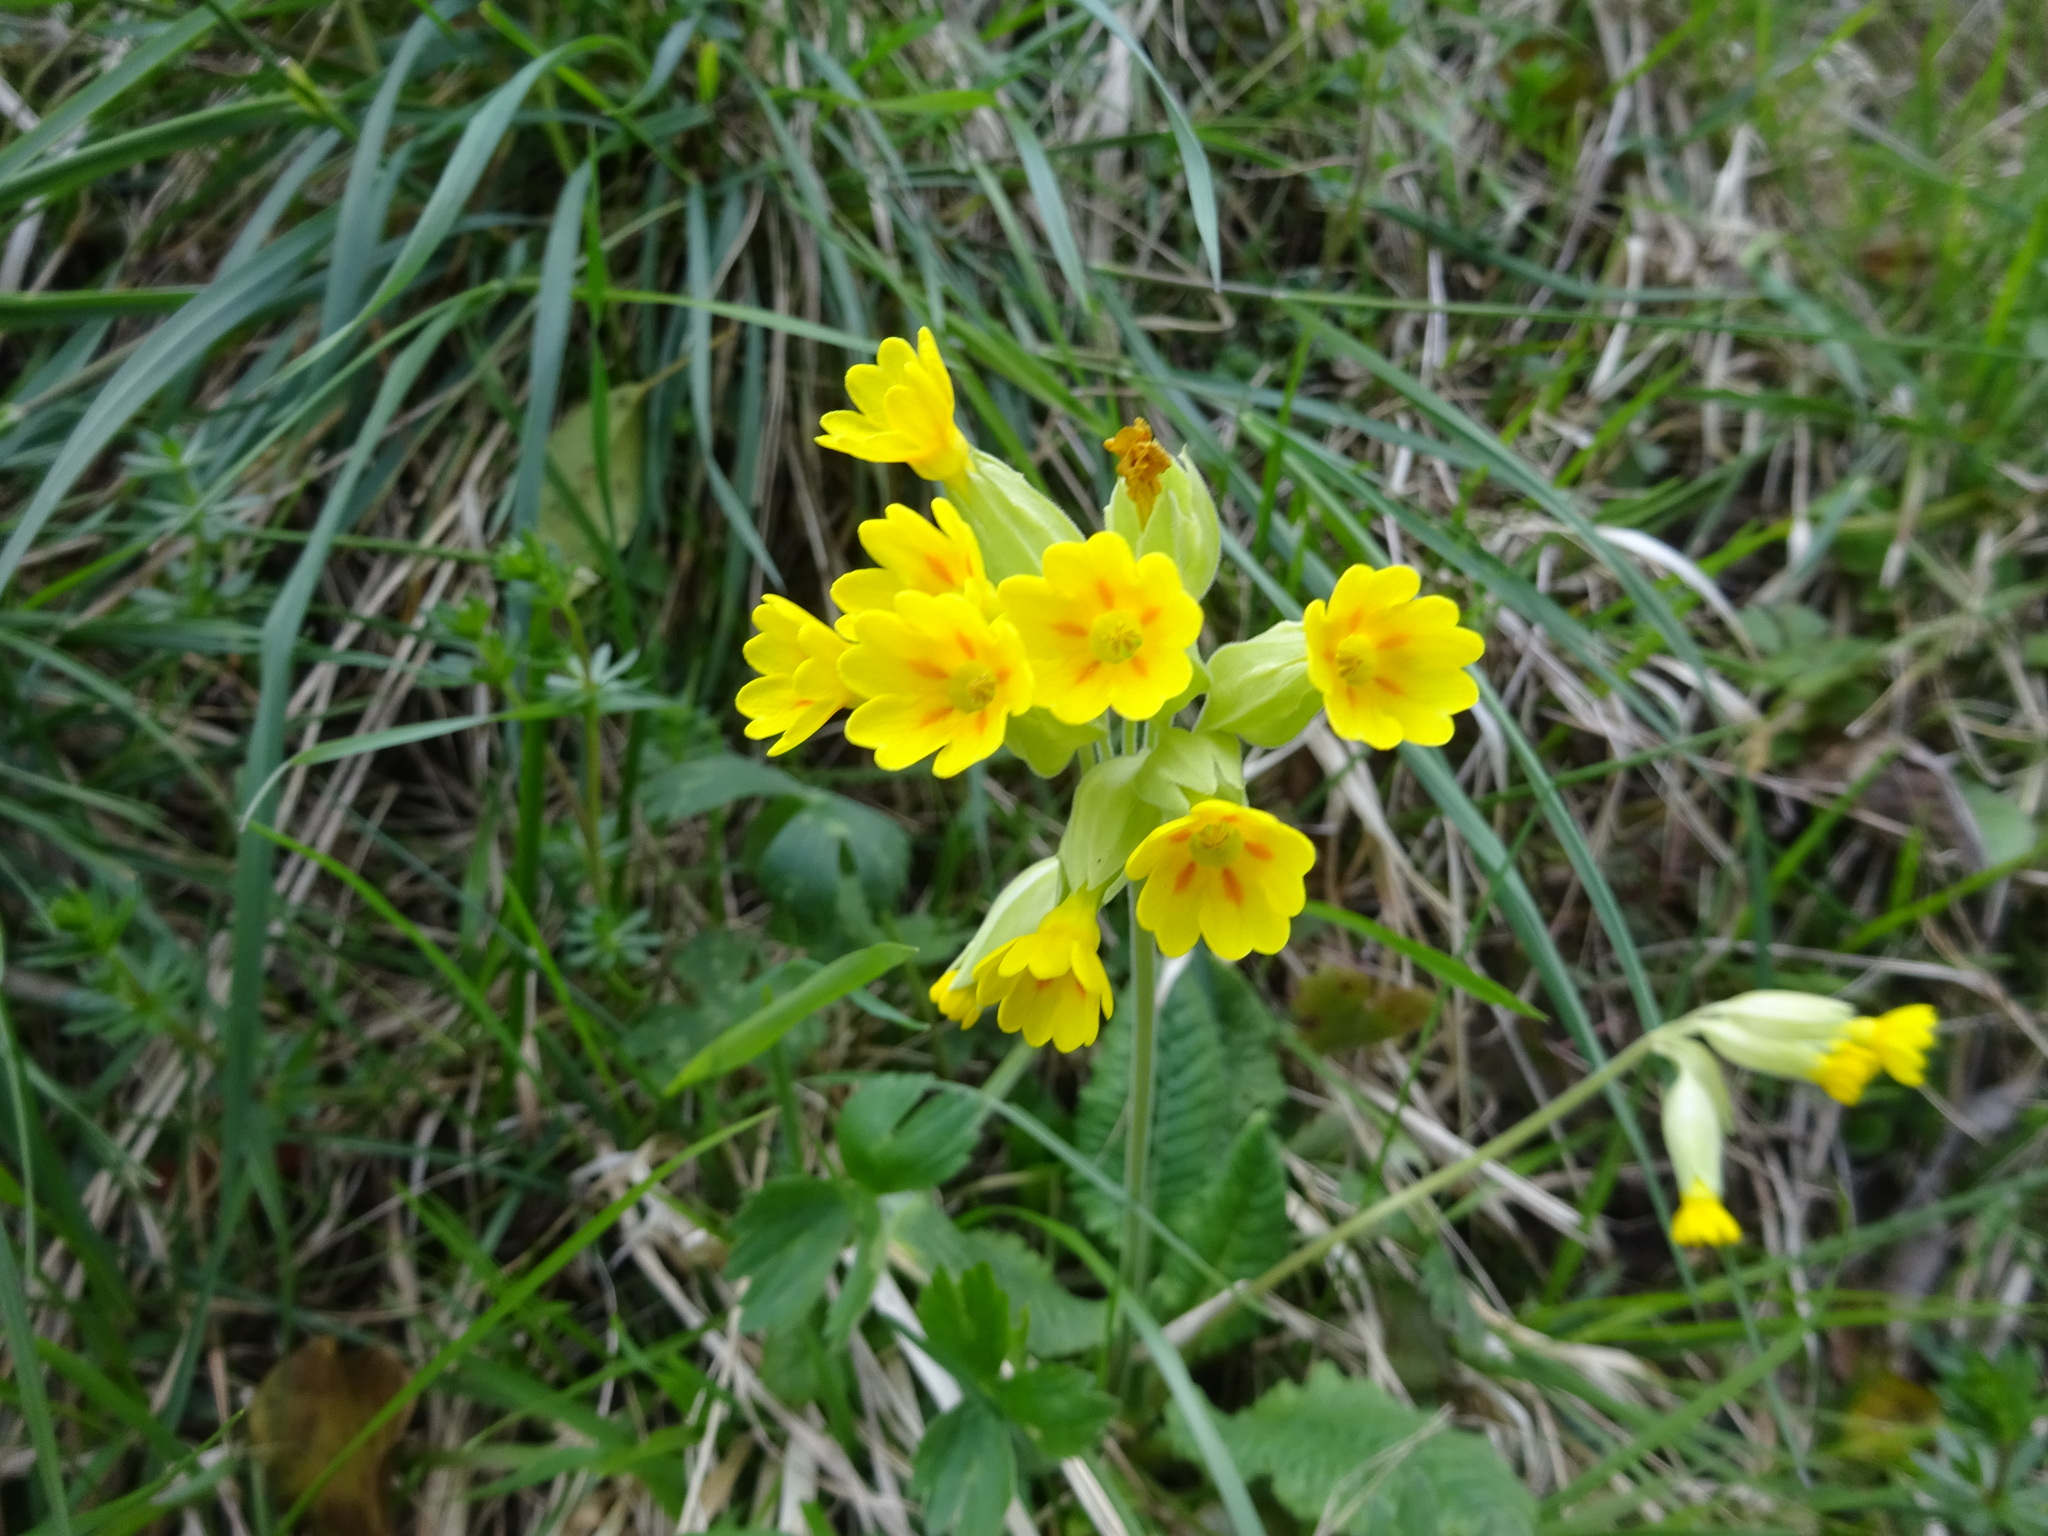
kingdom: Plantae
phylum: Tracheophyta
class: Magnoliopsida
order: Ericales
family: Primulaceae
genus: Primula
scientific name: Primula veris
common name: Cowslip
